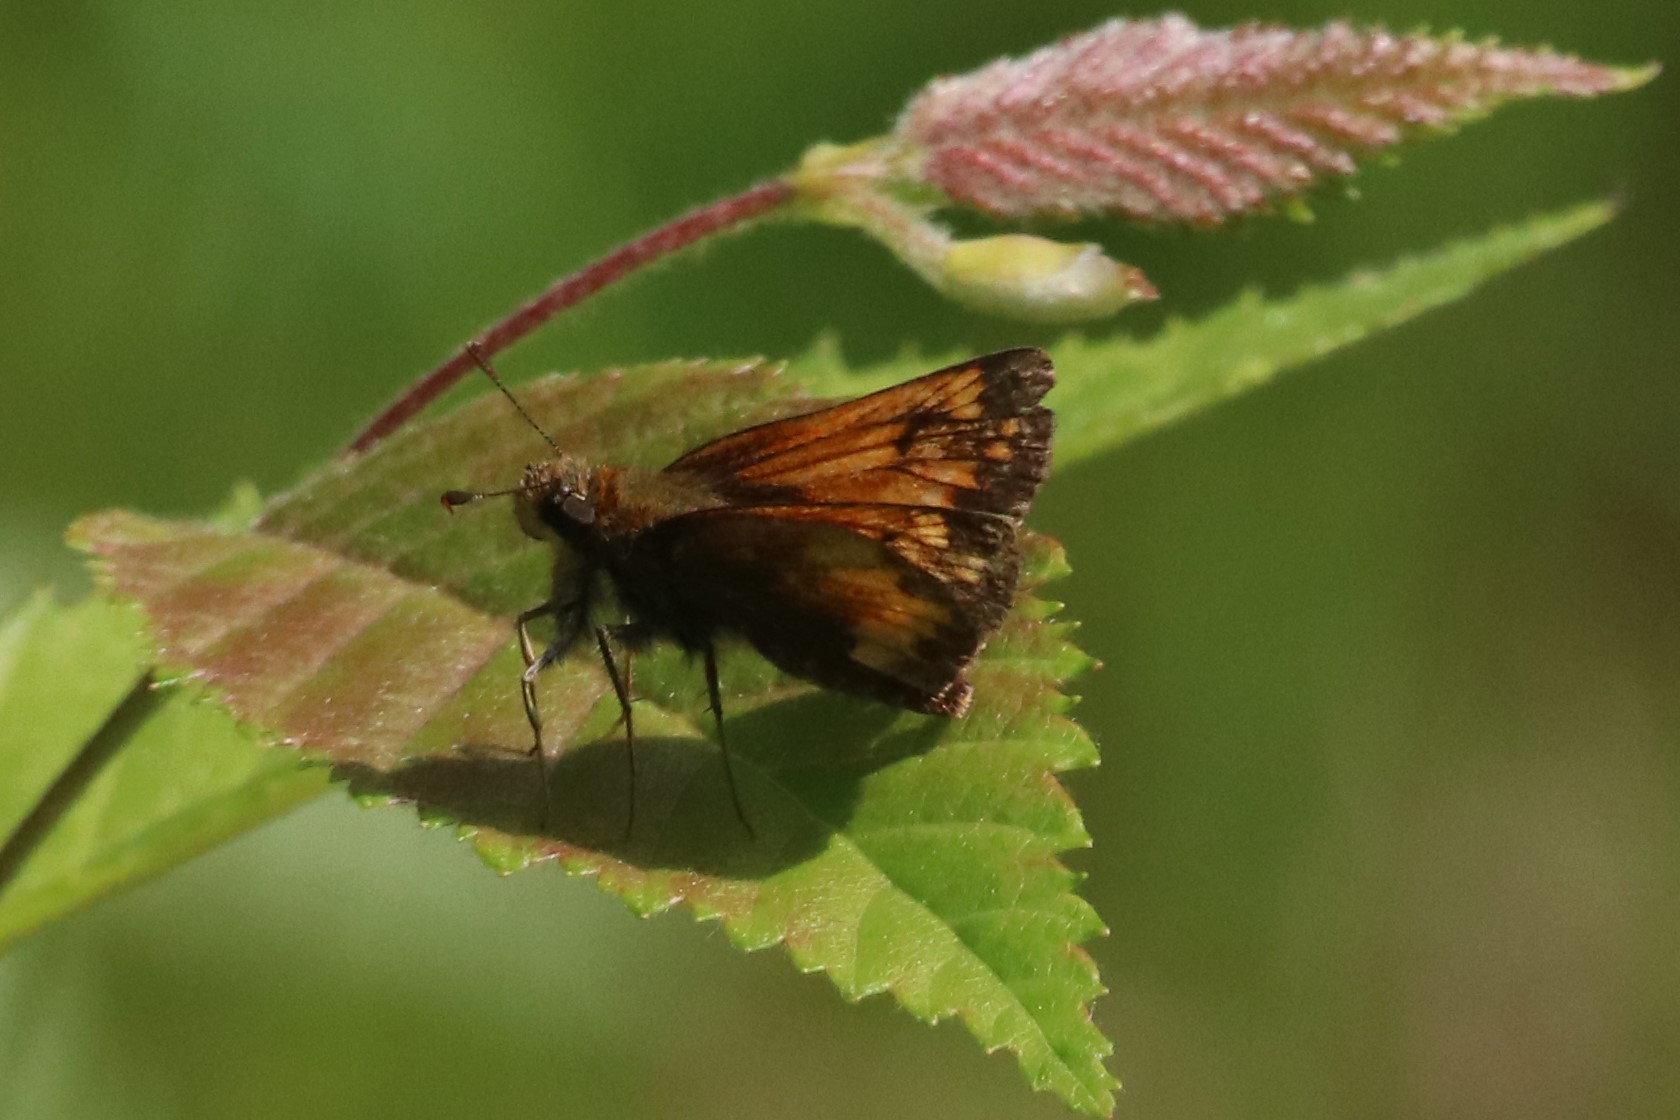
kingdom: Animalia
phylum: Arthropoda
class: Insecta
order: Lepidoptera
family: Hesperiidae
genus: Lon
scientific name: Lon hobomok
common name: Hobomok skipper
